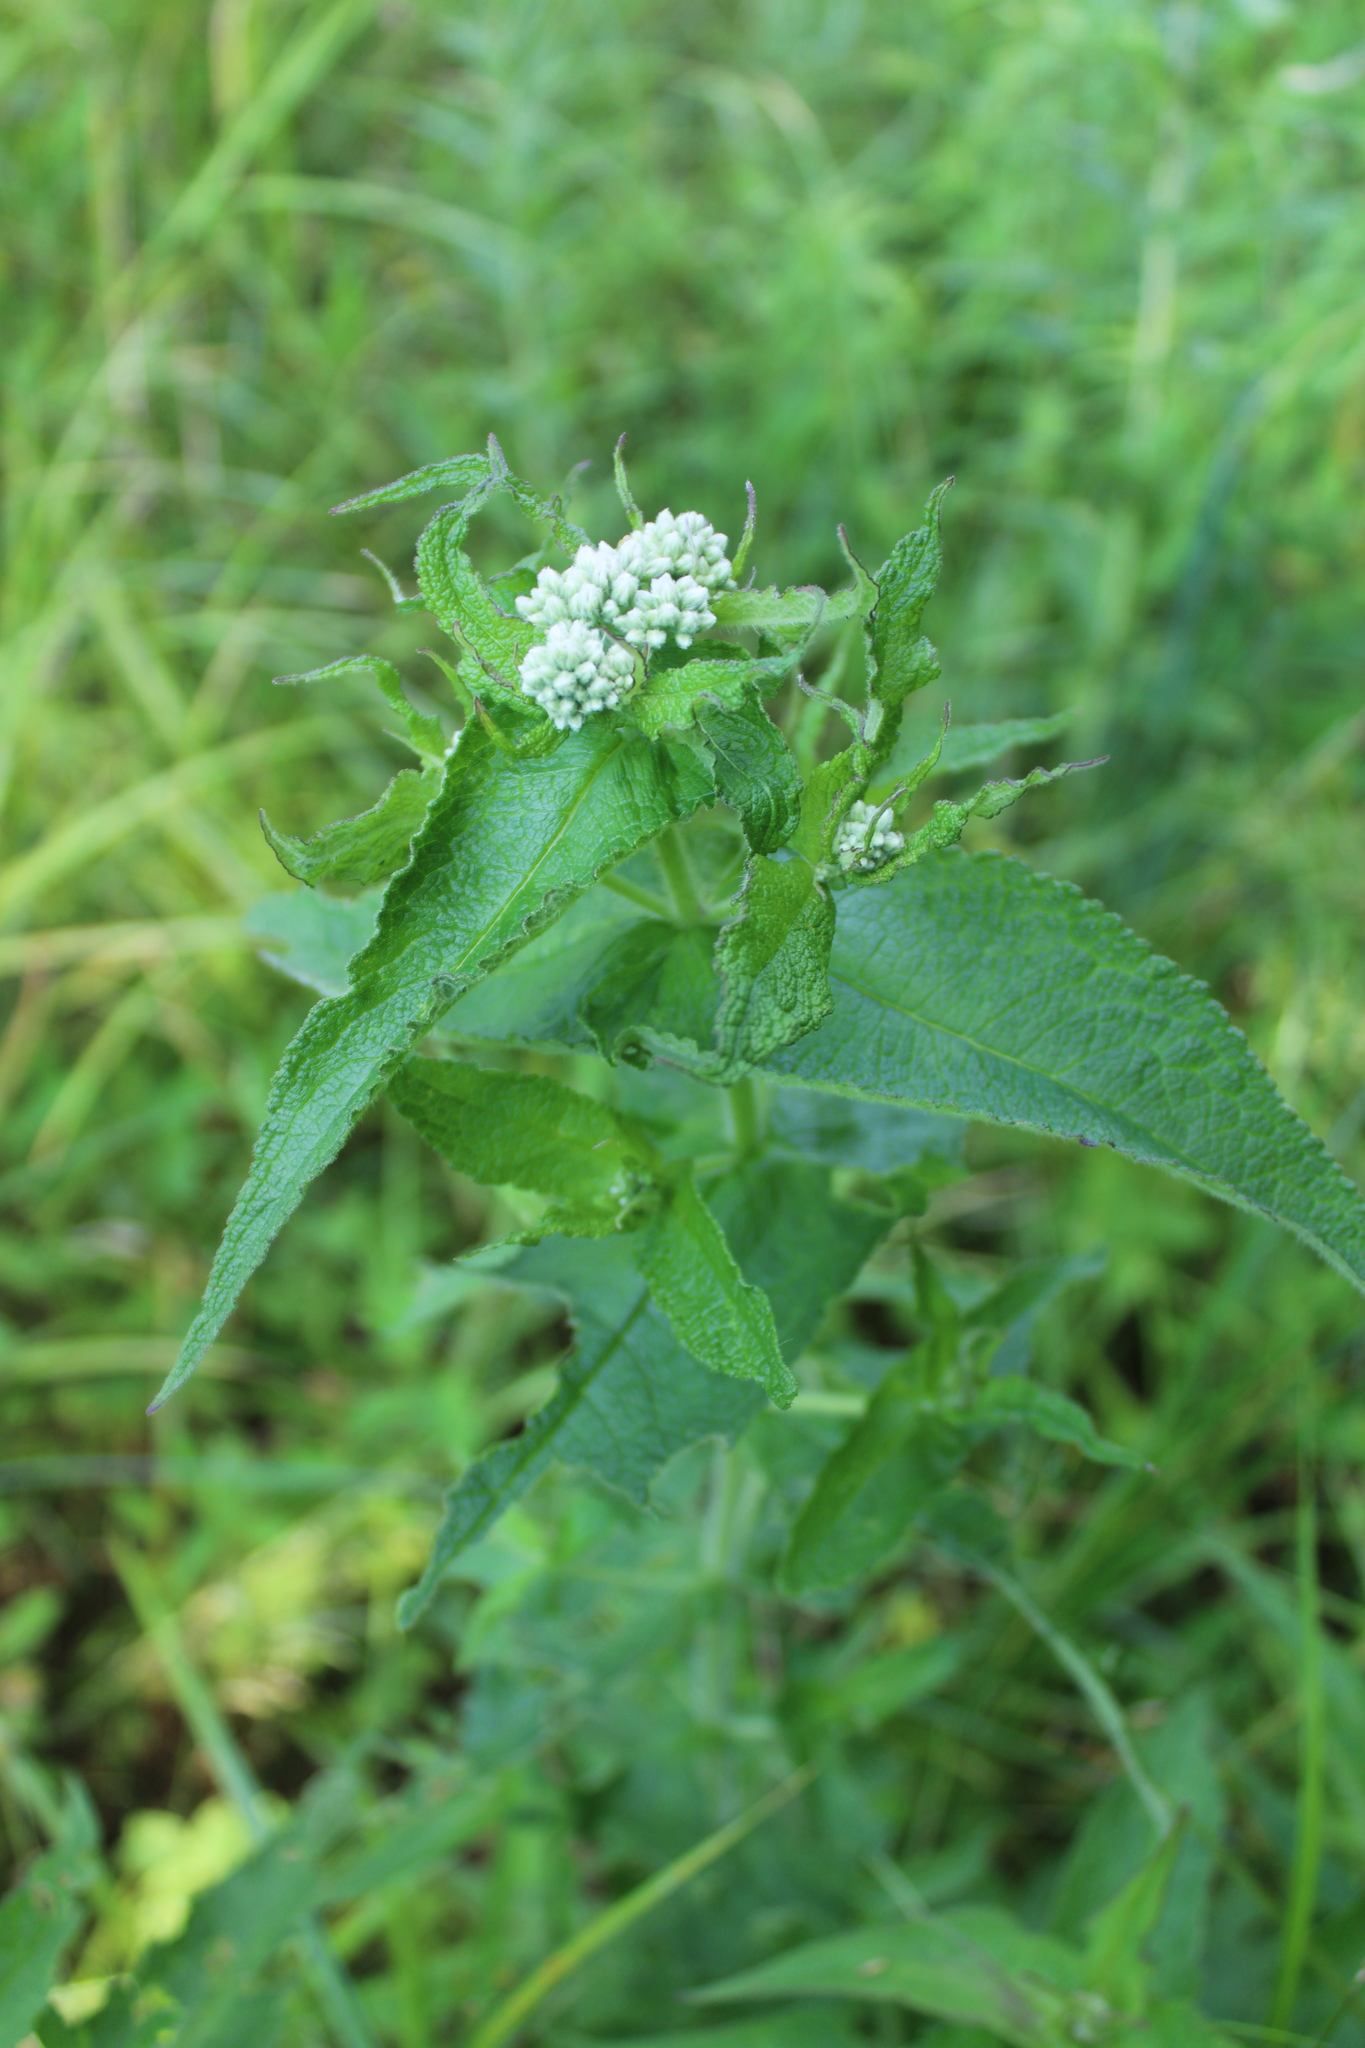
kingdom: Plantae
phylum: Tracheophyta
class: Magnoliopsida
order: Asterales
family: Asteraceae
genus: Eupatorium
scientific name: Eupatorium perfoliatum
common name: Boneset
